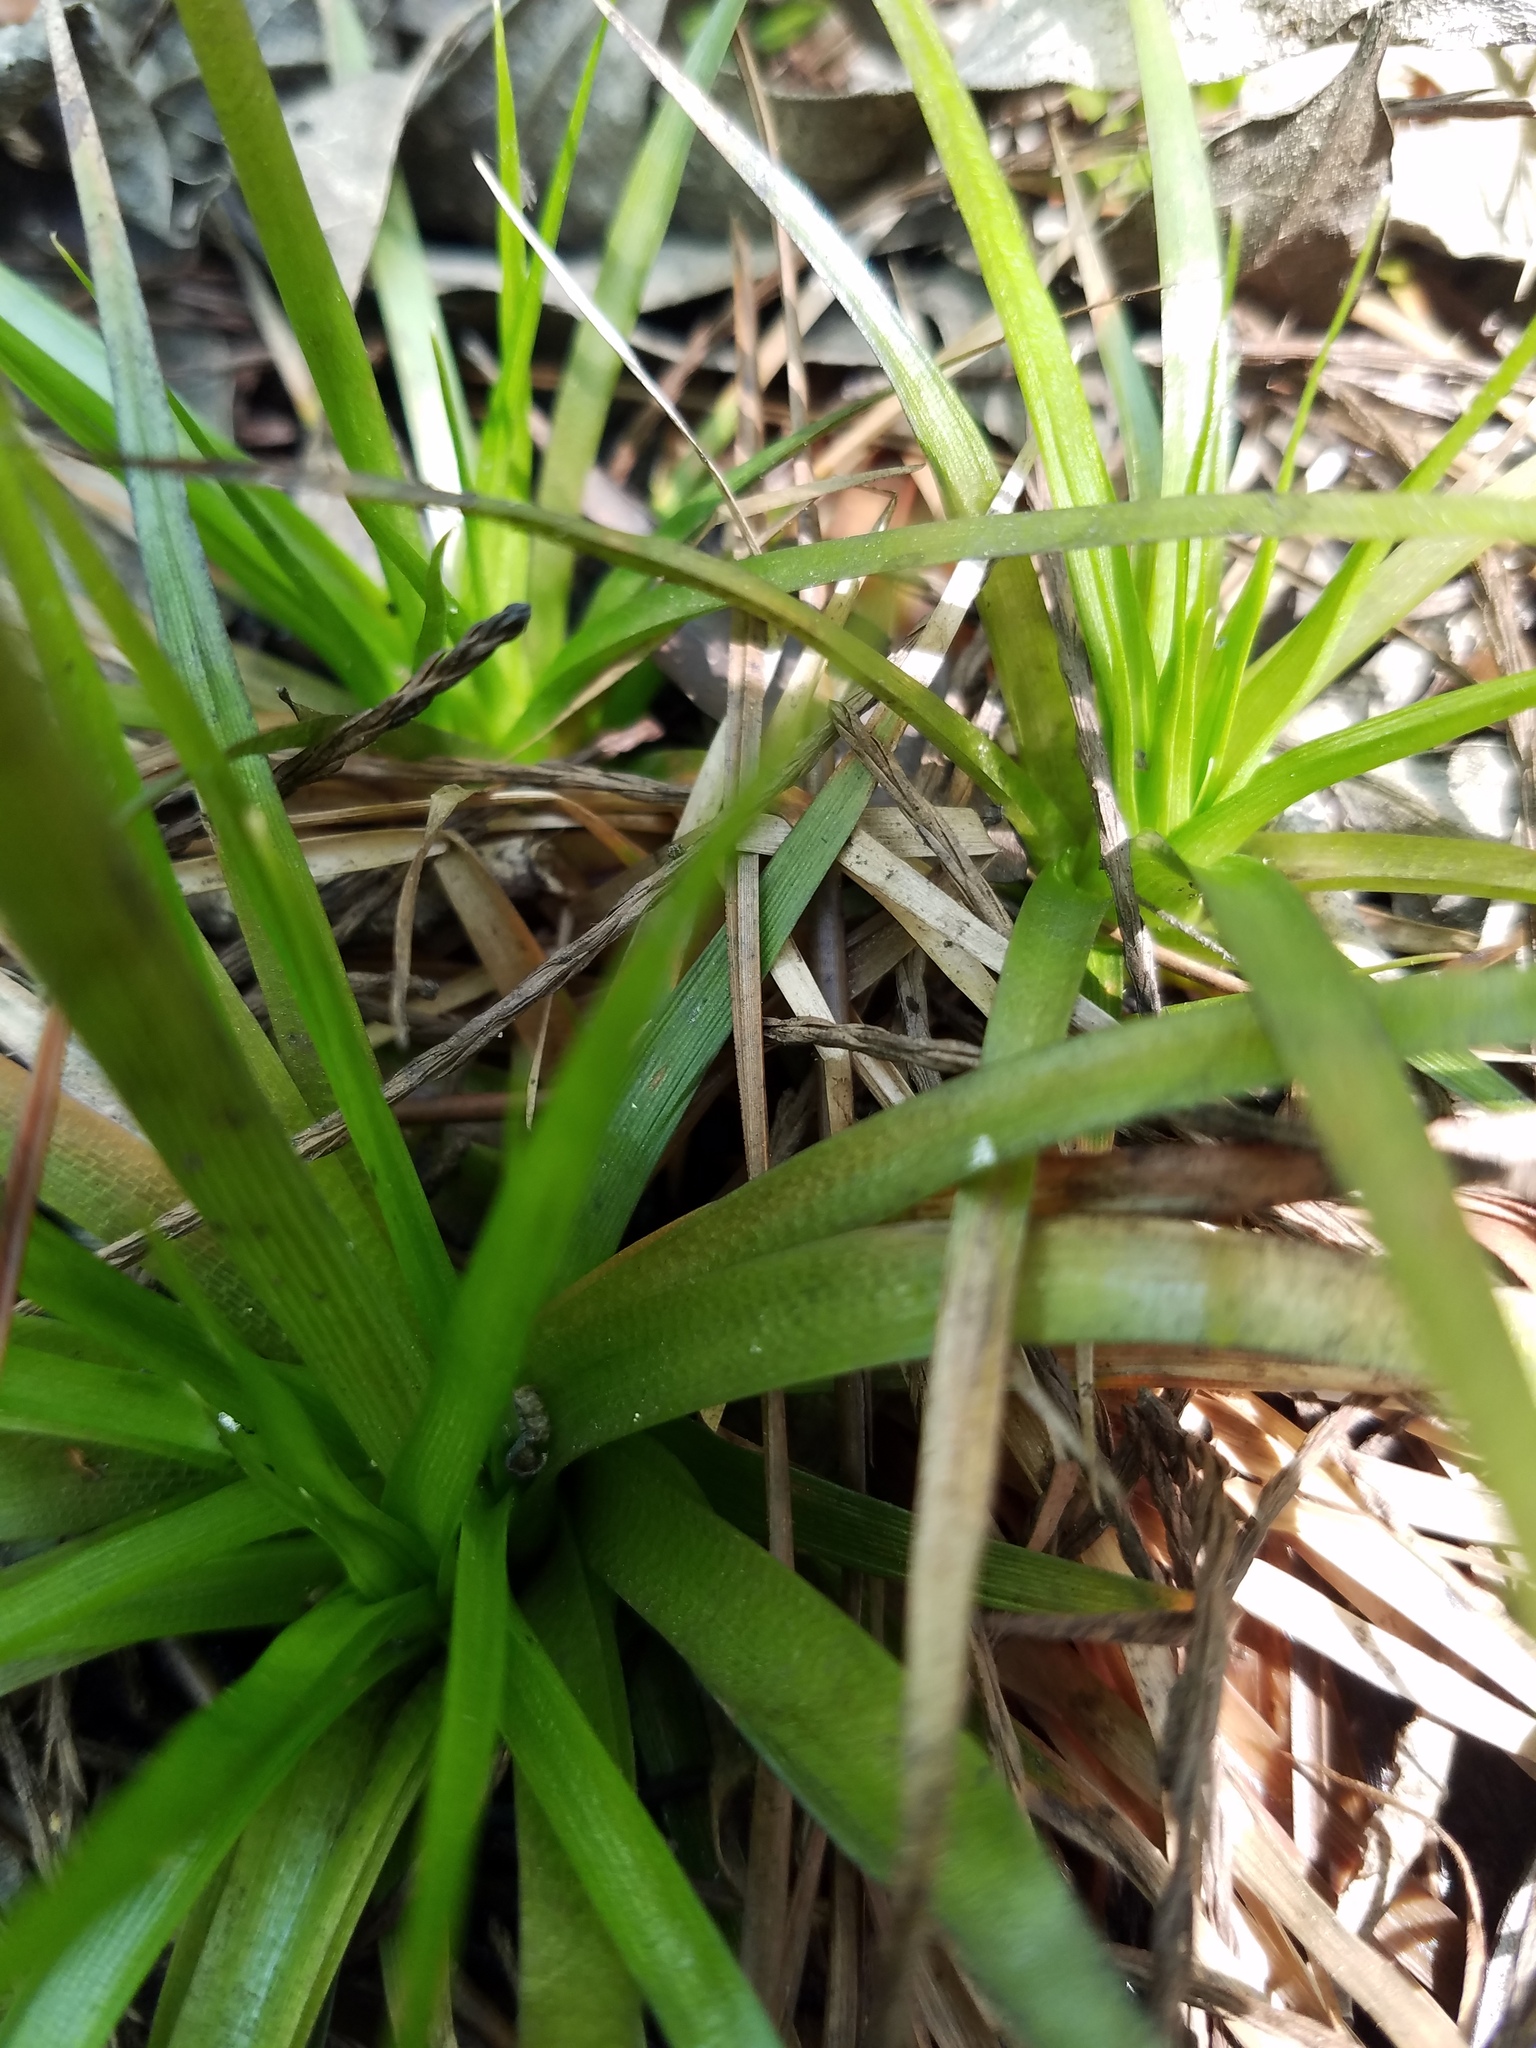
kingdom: Plantae
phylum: Tracheophyta
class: Liliopsida
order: Poales
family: Eriocaulaceae
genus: Eriocaulon
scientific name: Eriocaulon compressum
